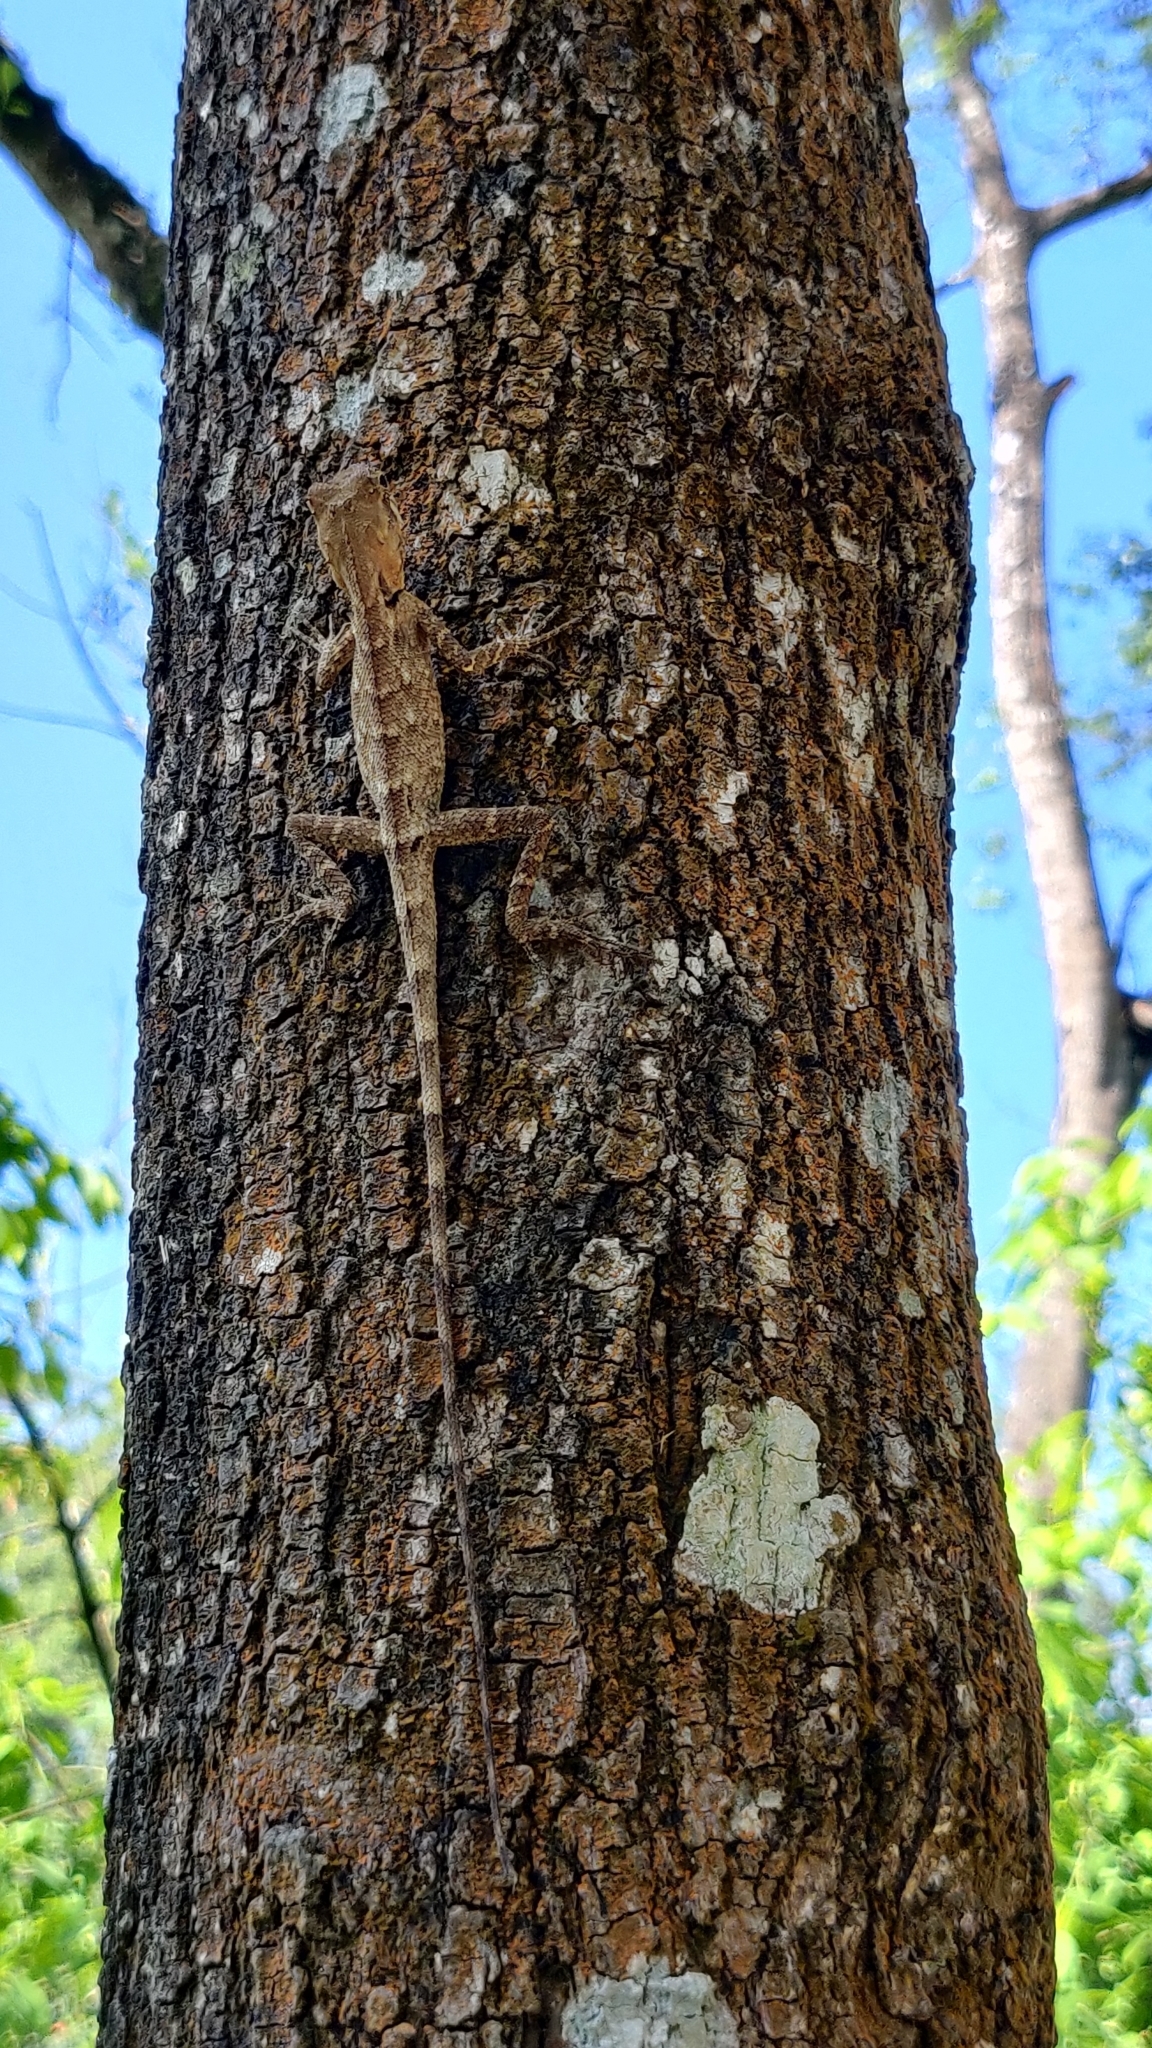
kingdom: Animalia
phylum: Chordata
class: Squamata
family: Agamidae
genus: Monilesaurus
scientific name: Monilesaurus rouxii
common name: Roux's forest lizard
